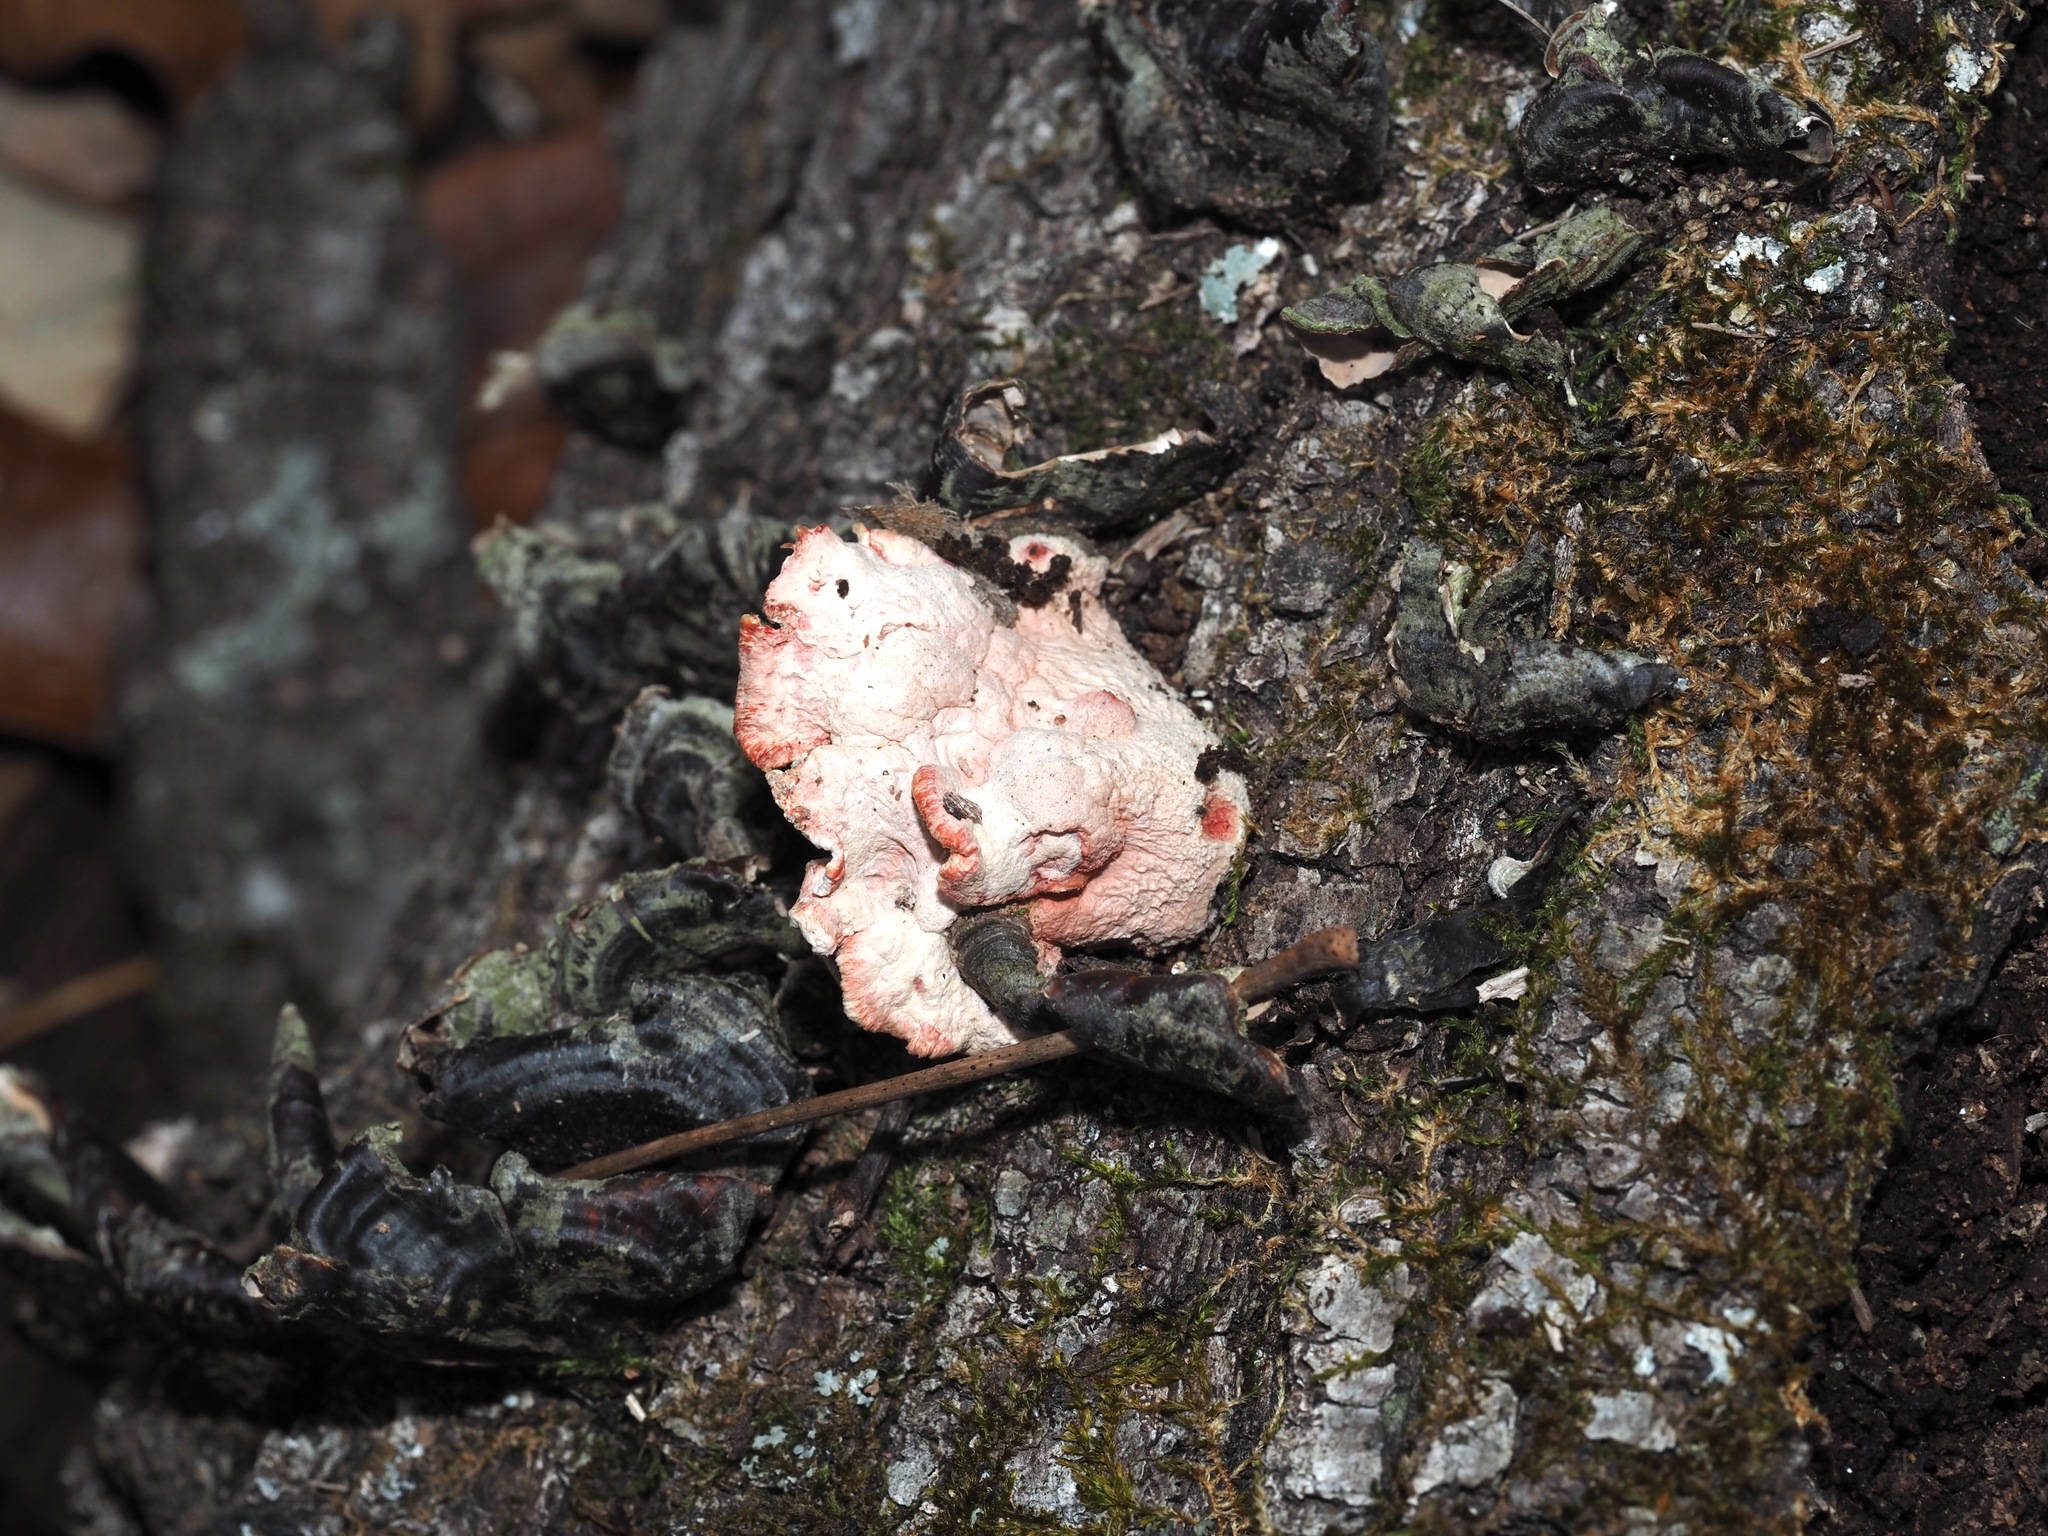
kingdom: Fungi
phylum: Basidiomycota
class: Agaricomycetes
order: Polyporales
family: Irpicaceae
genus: Byssomerulius
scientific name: Byssomerulius incarnatus
